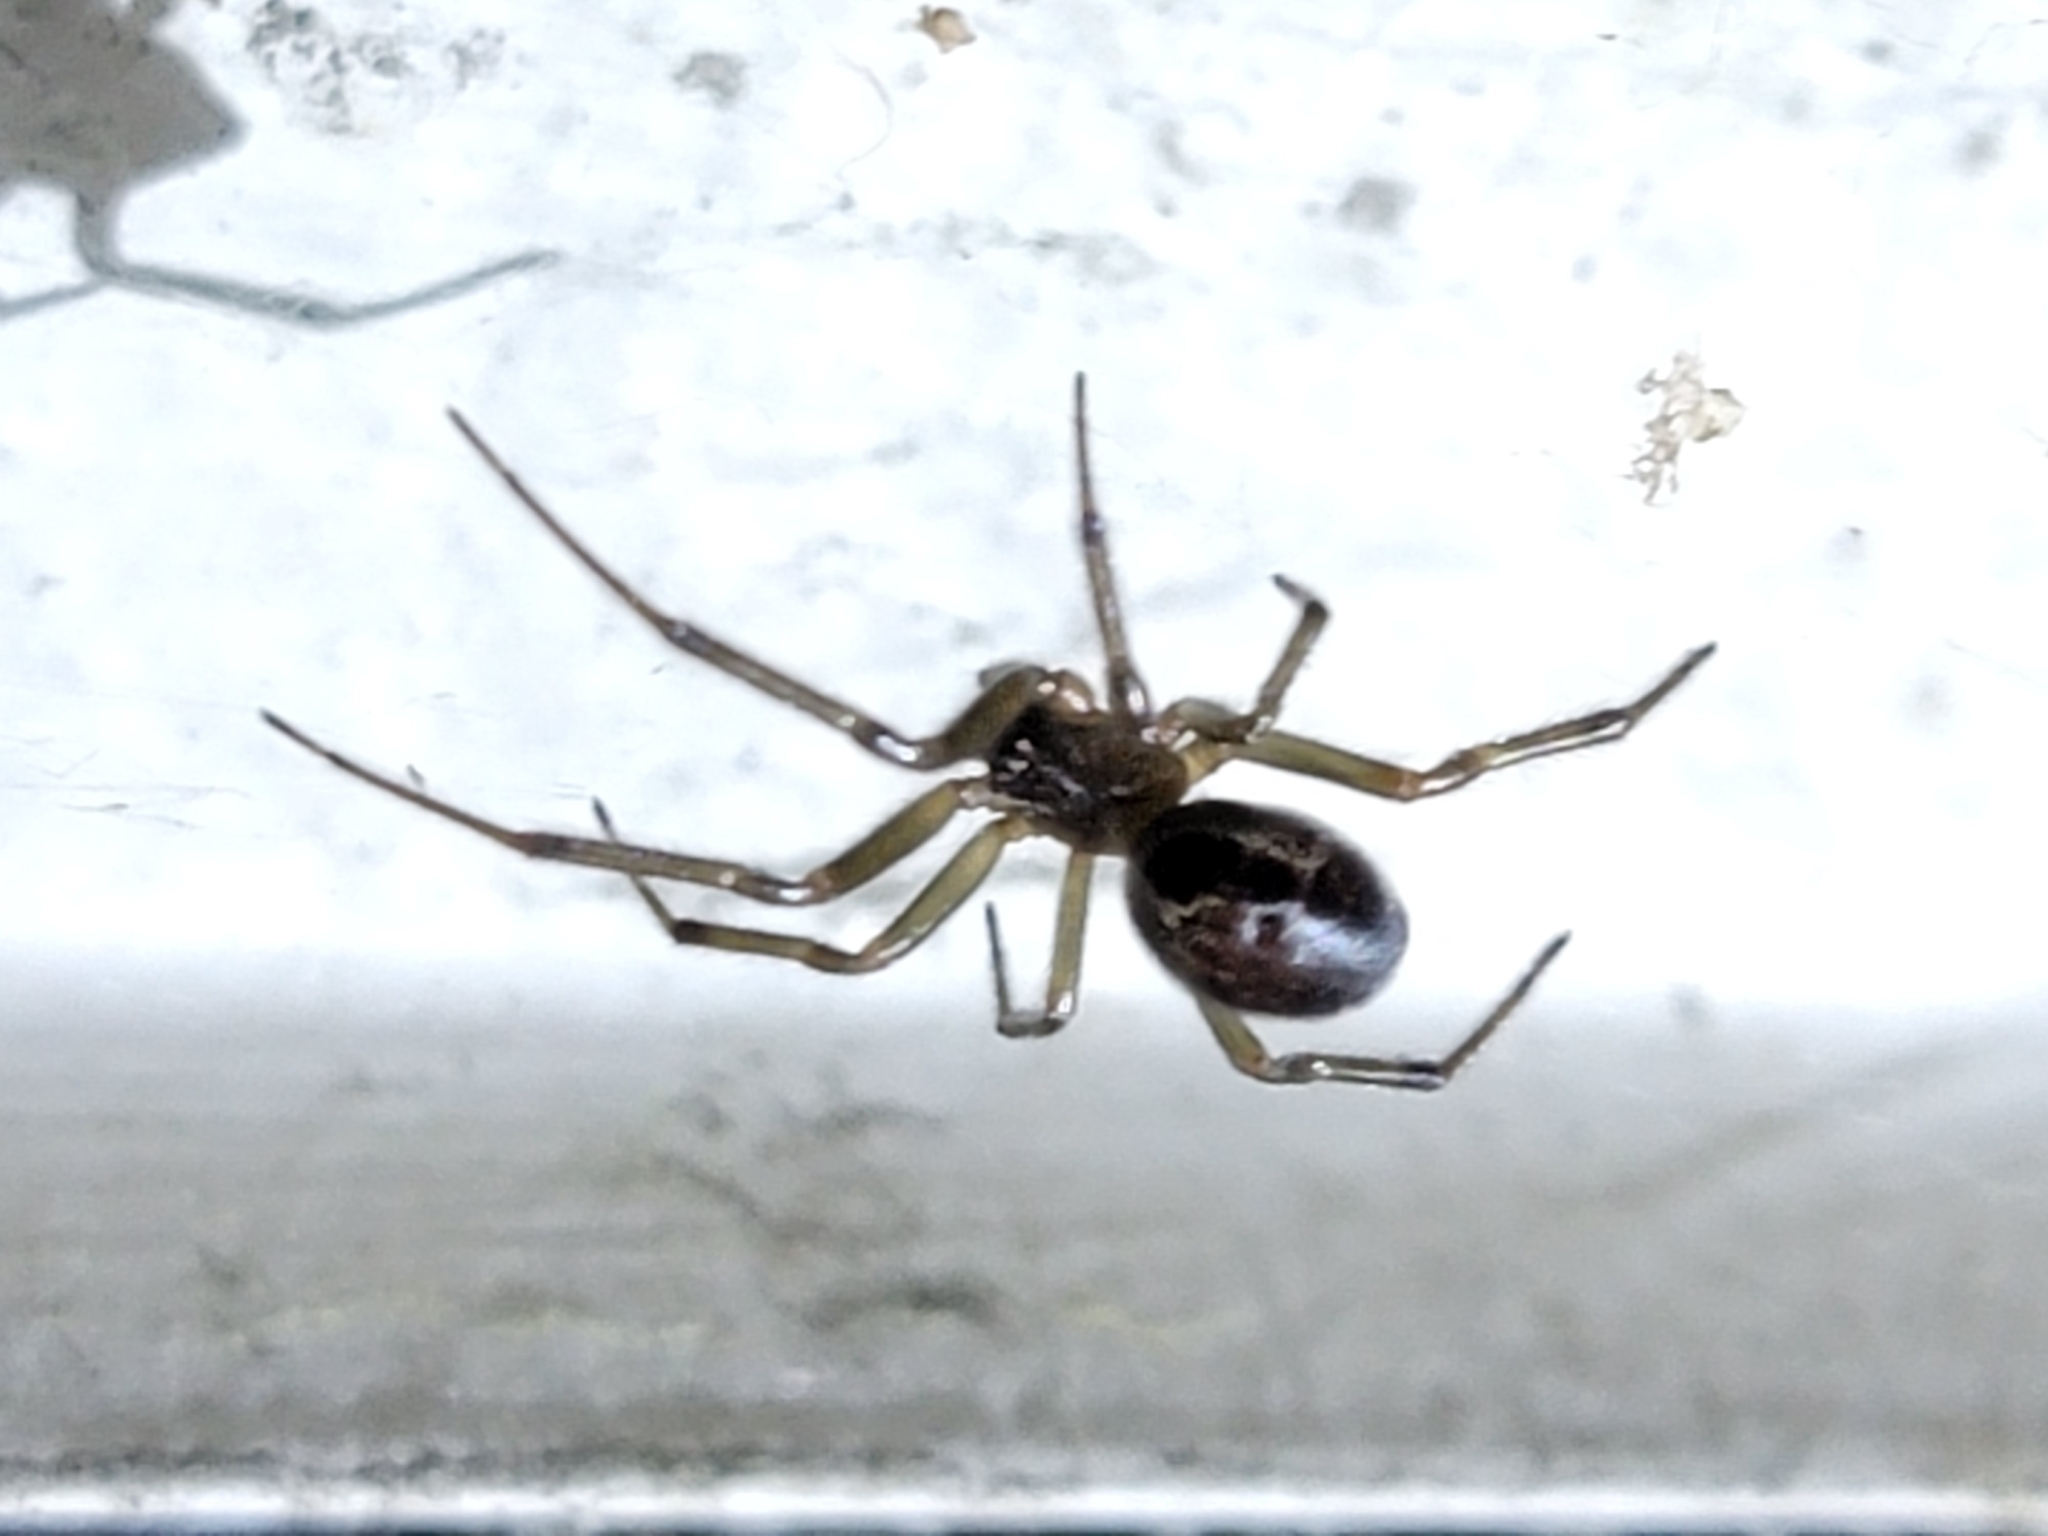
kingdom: Animalia
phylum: Arthropoda
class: Arachnida
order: Araneae
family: Theridiidae
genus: Steatoda
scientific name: Steatoda nobilis
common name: Cobweb weaver
